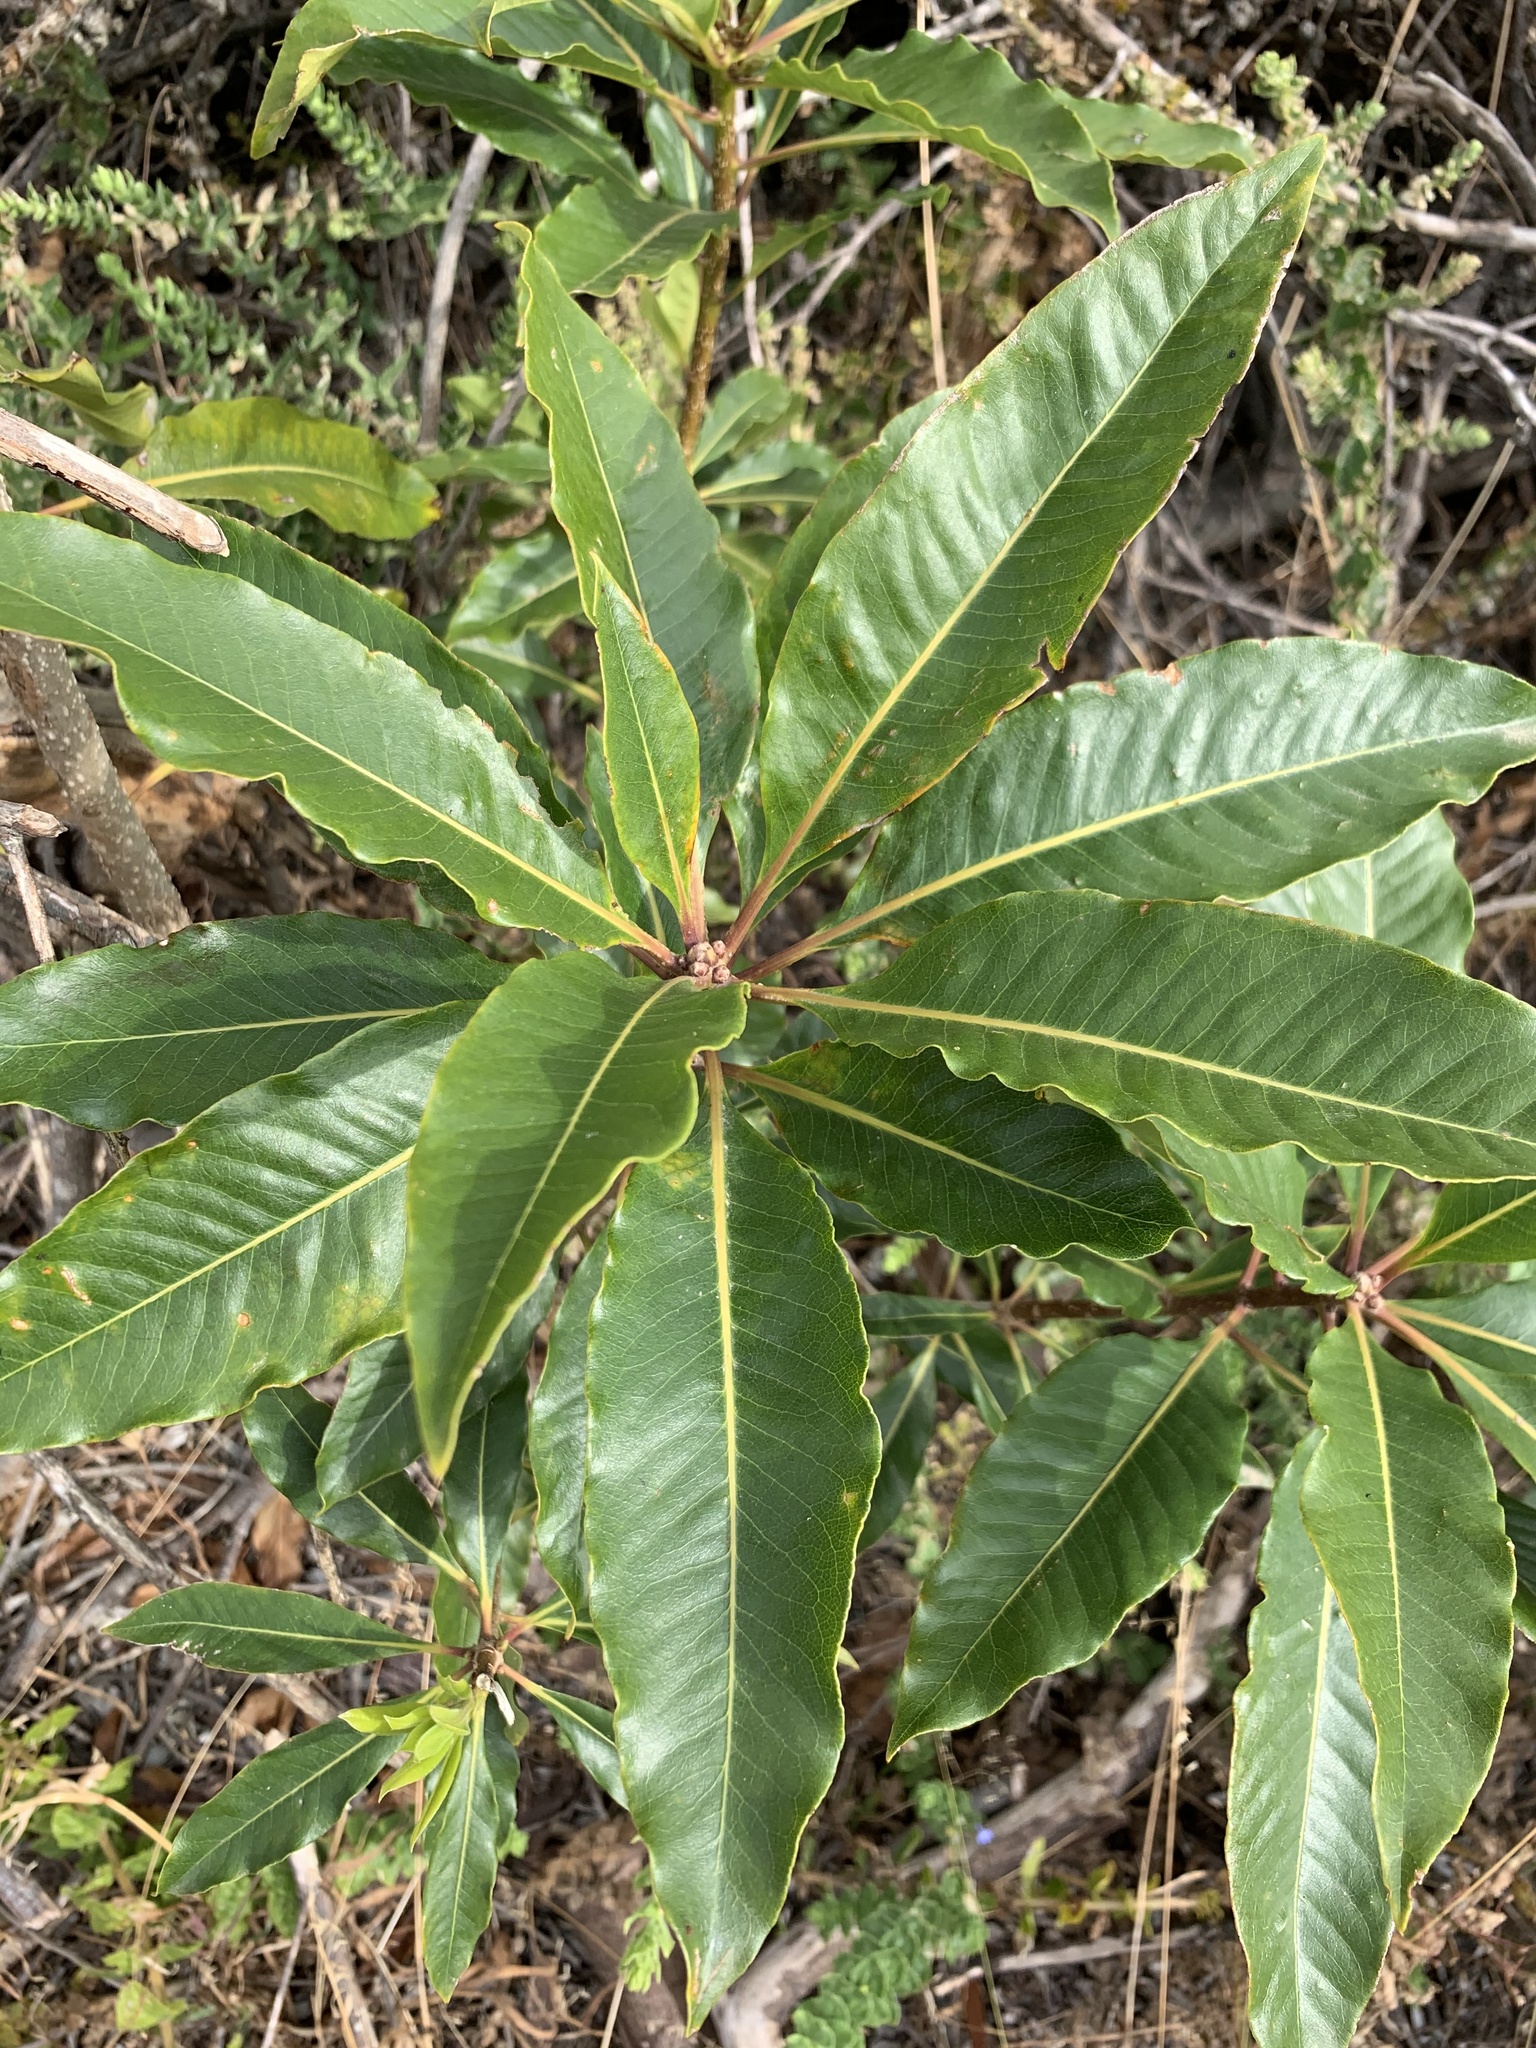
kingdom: Plantae
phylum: Tracheophyta
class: Magnoliopsida
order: Apiales
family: Pittosporaceae
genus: Pittosporum
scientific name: Pittosporum undulatum
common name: Australian cheesewood
